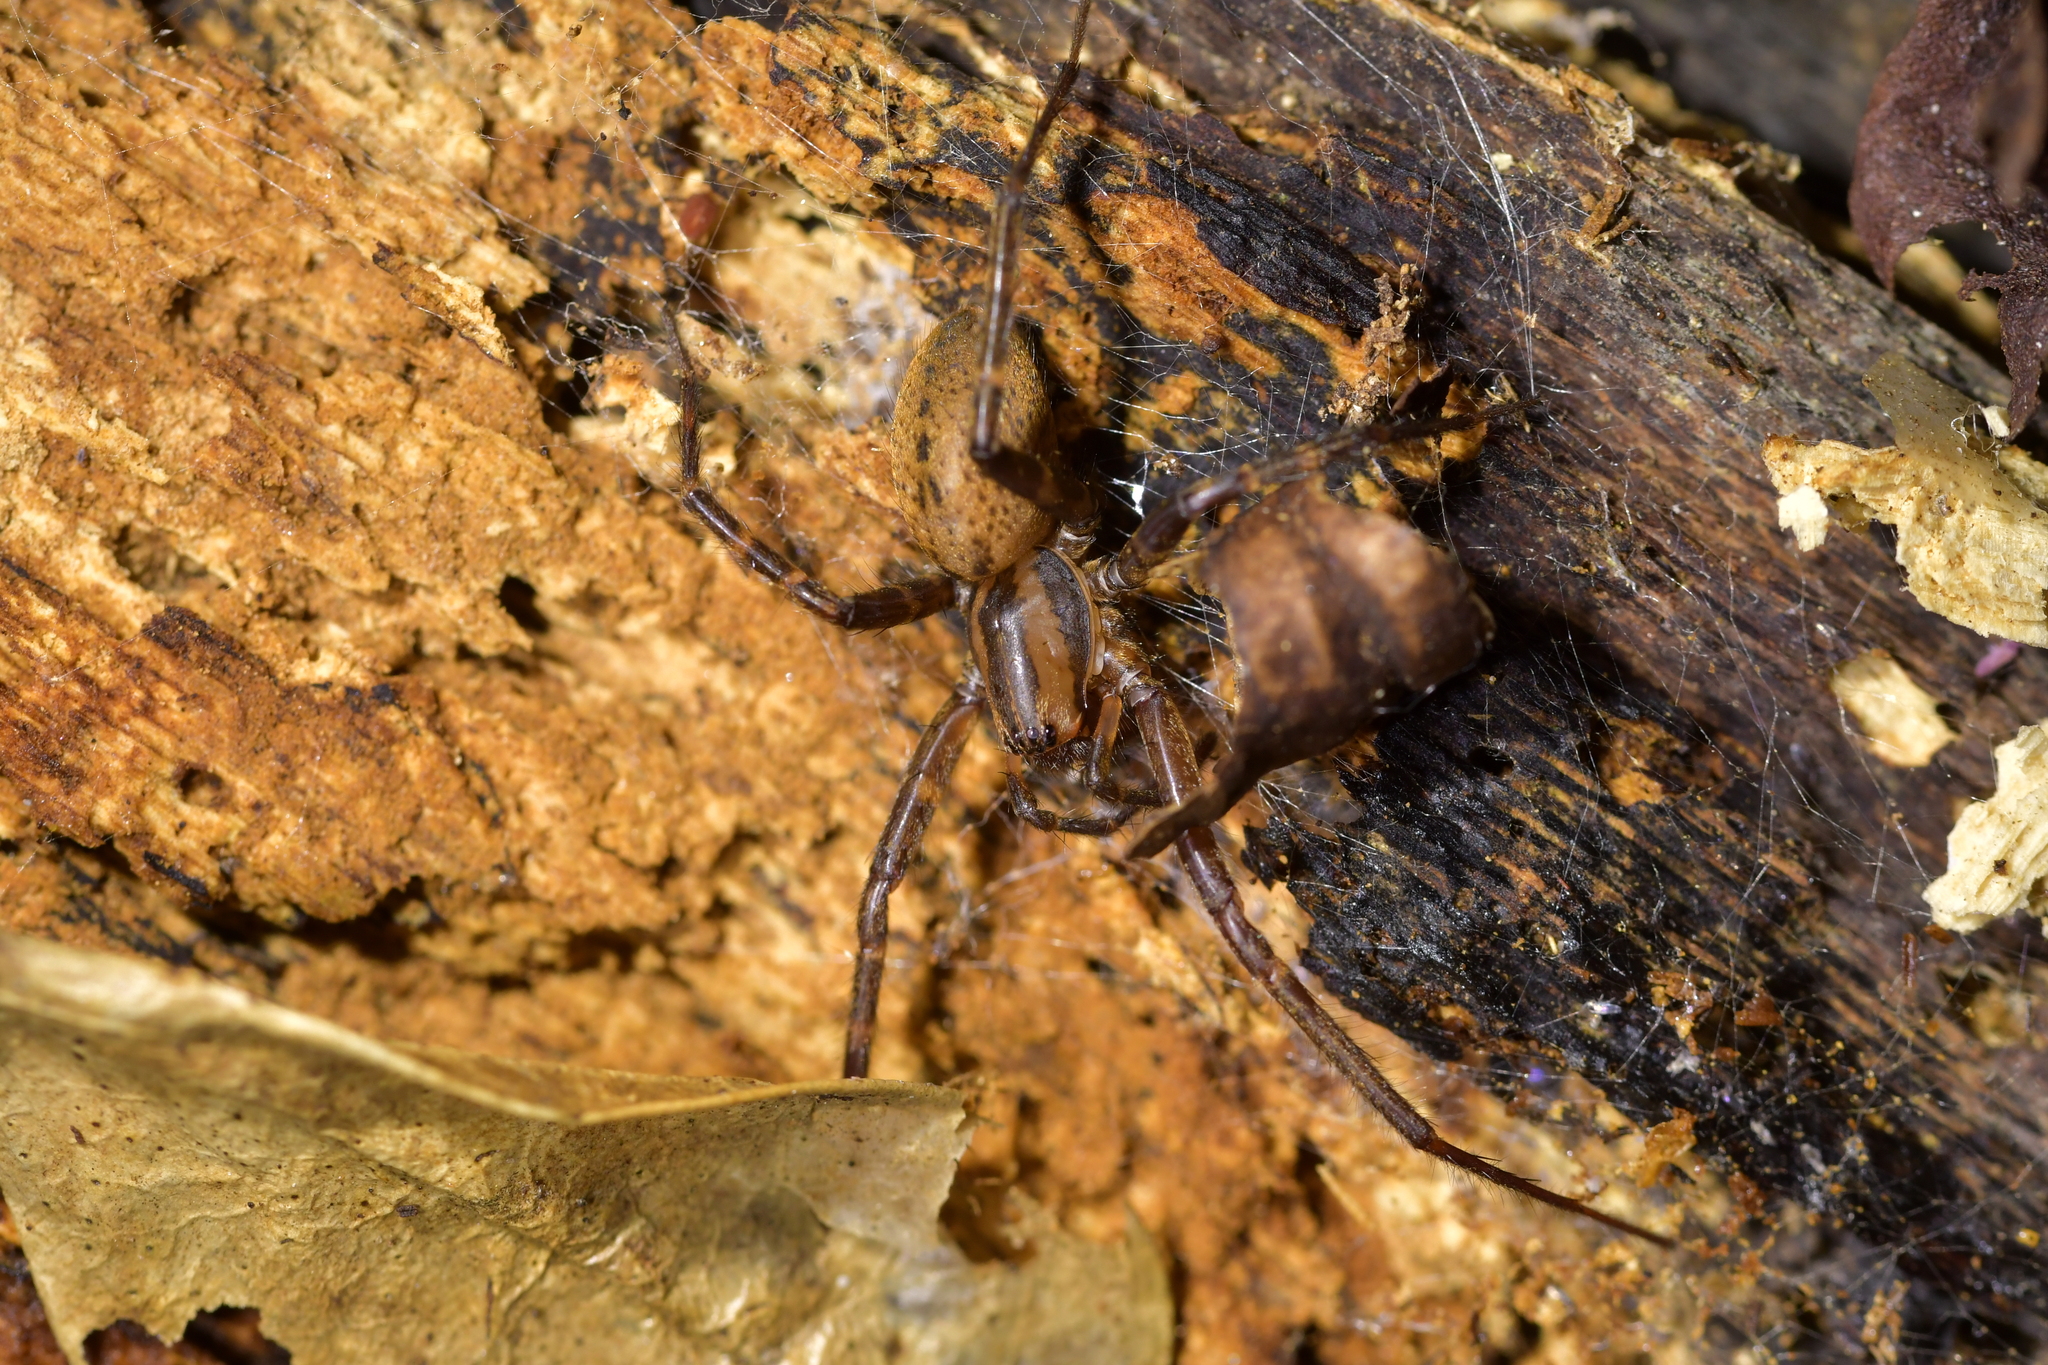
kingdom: Animalia
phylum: Arthropoda
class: Arachnida
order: Araneae
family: Desidae
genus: Cambridgea
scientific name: Cambridgea annulata
